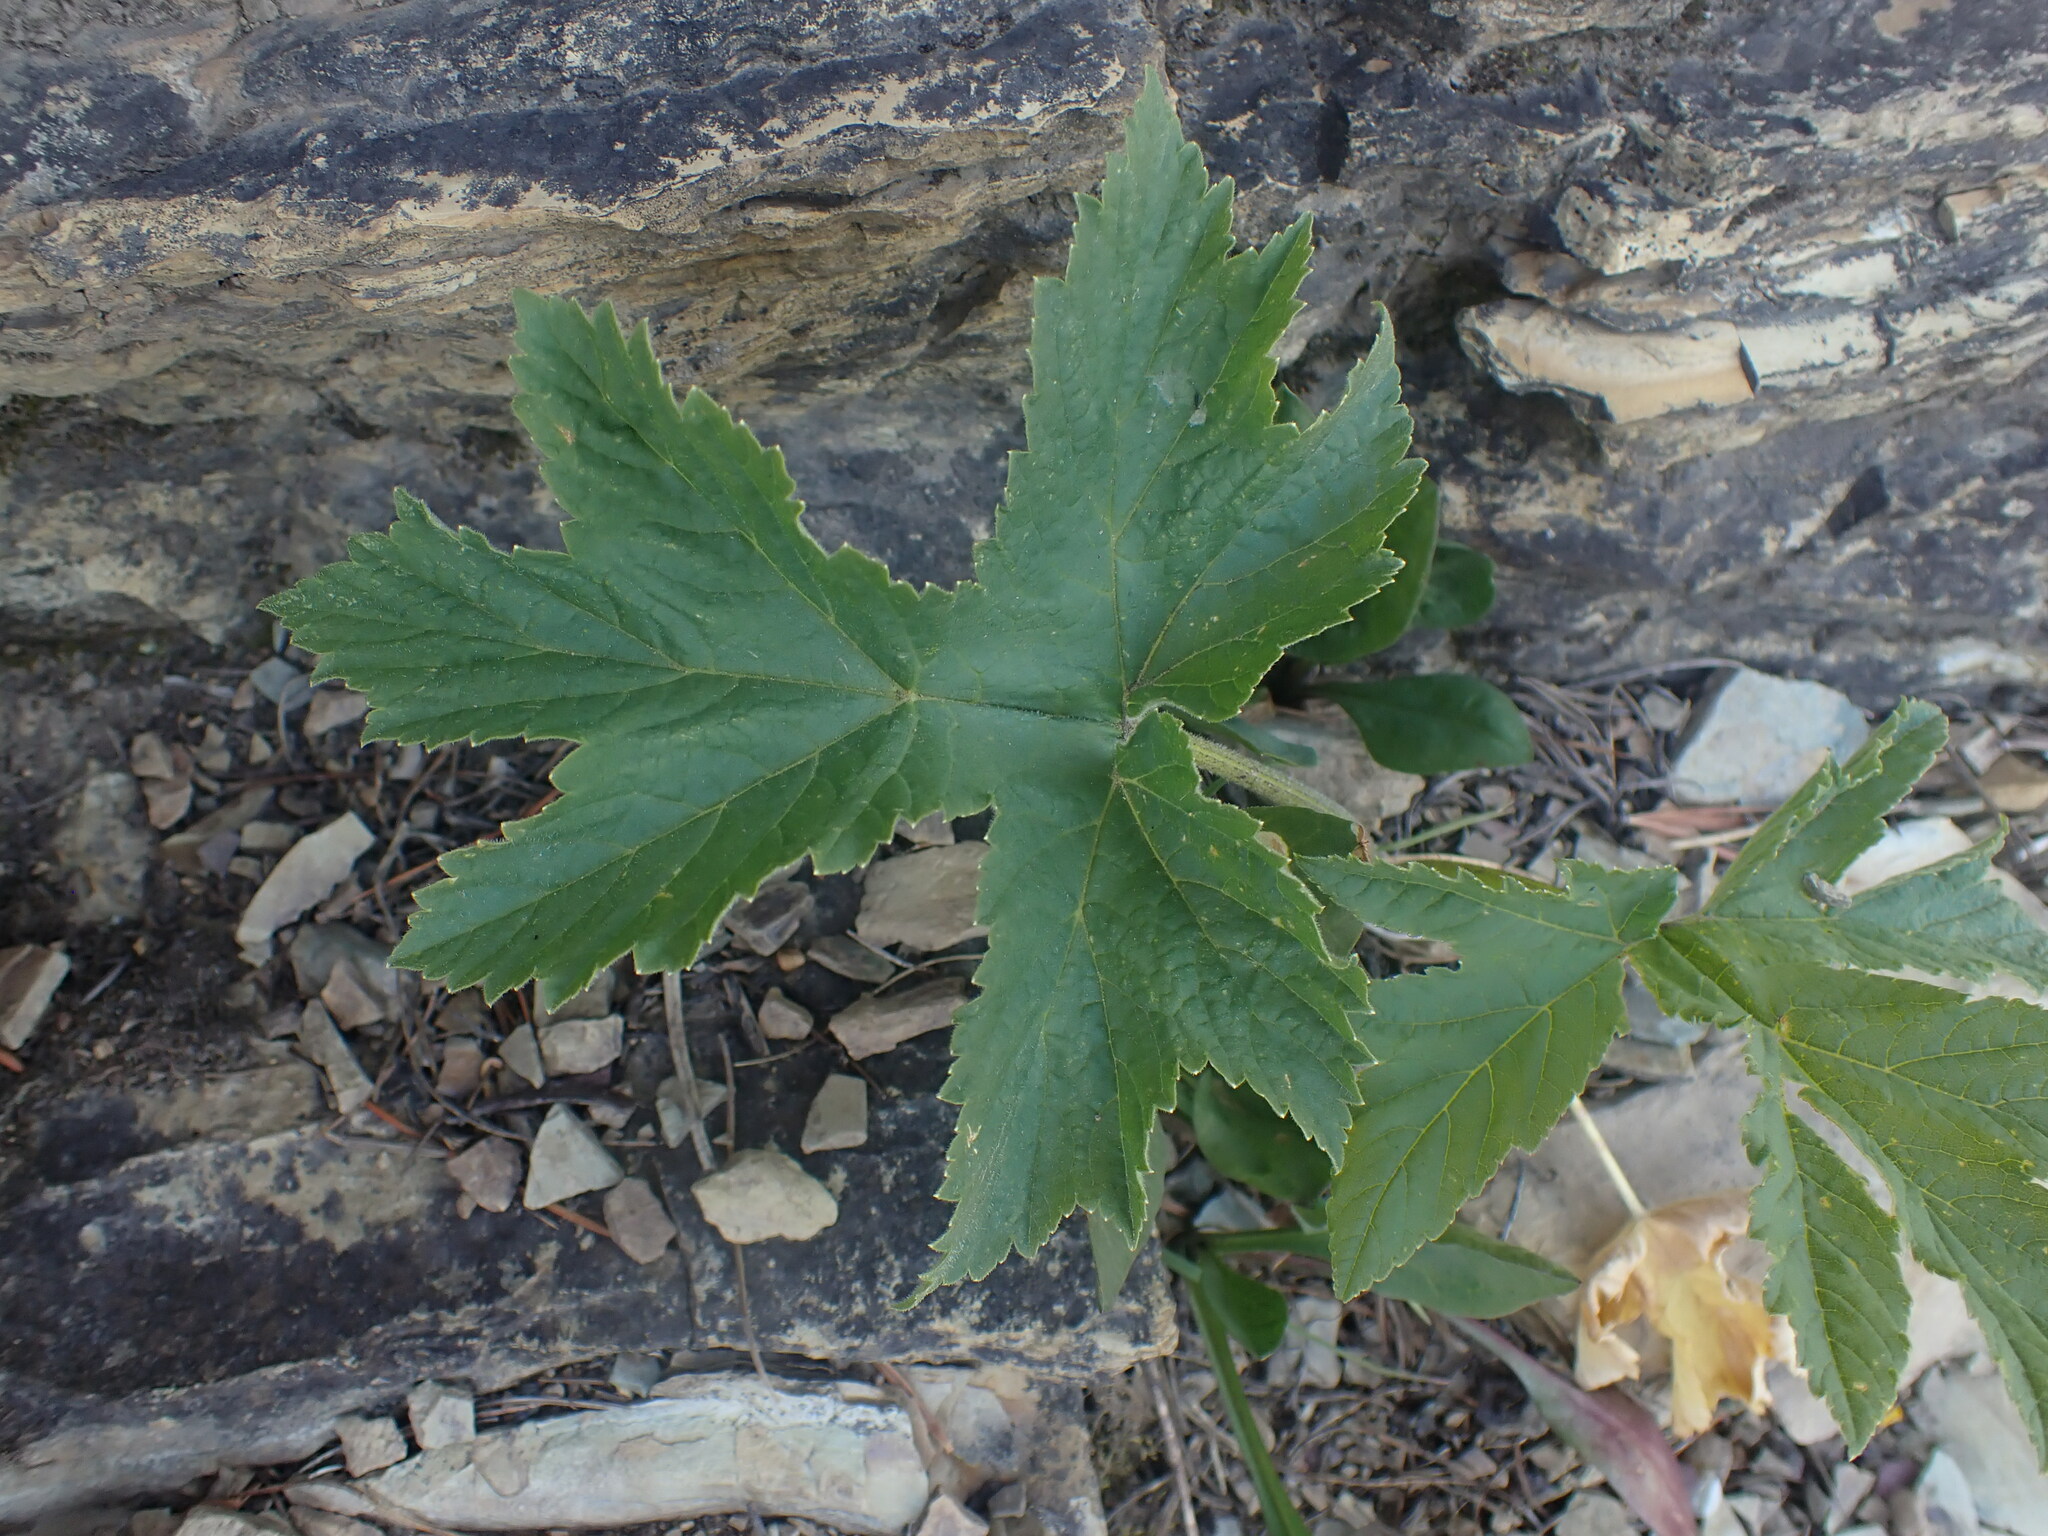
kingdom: Plantae
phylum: Tracheophyta
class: Magnoliopsida
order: Apiales
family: Apiaceae
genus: Heracleum
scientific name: Heracleum maximum
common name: American cow parsnip
